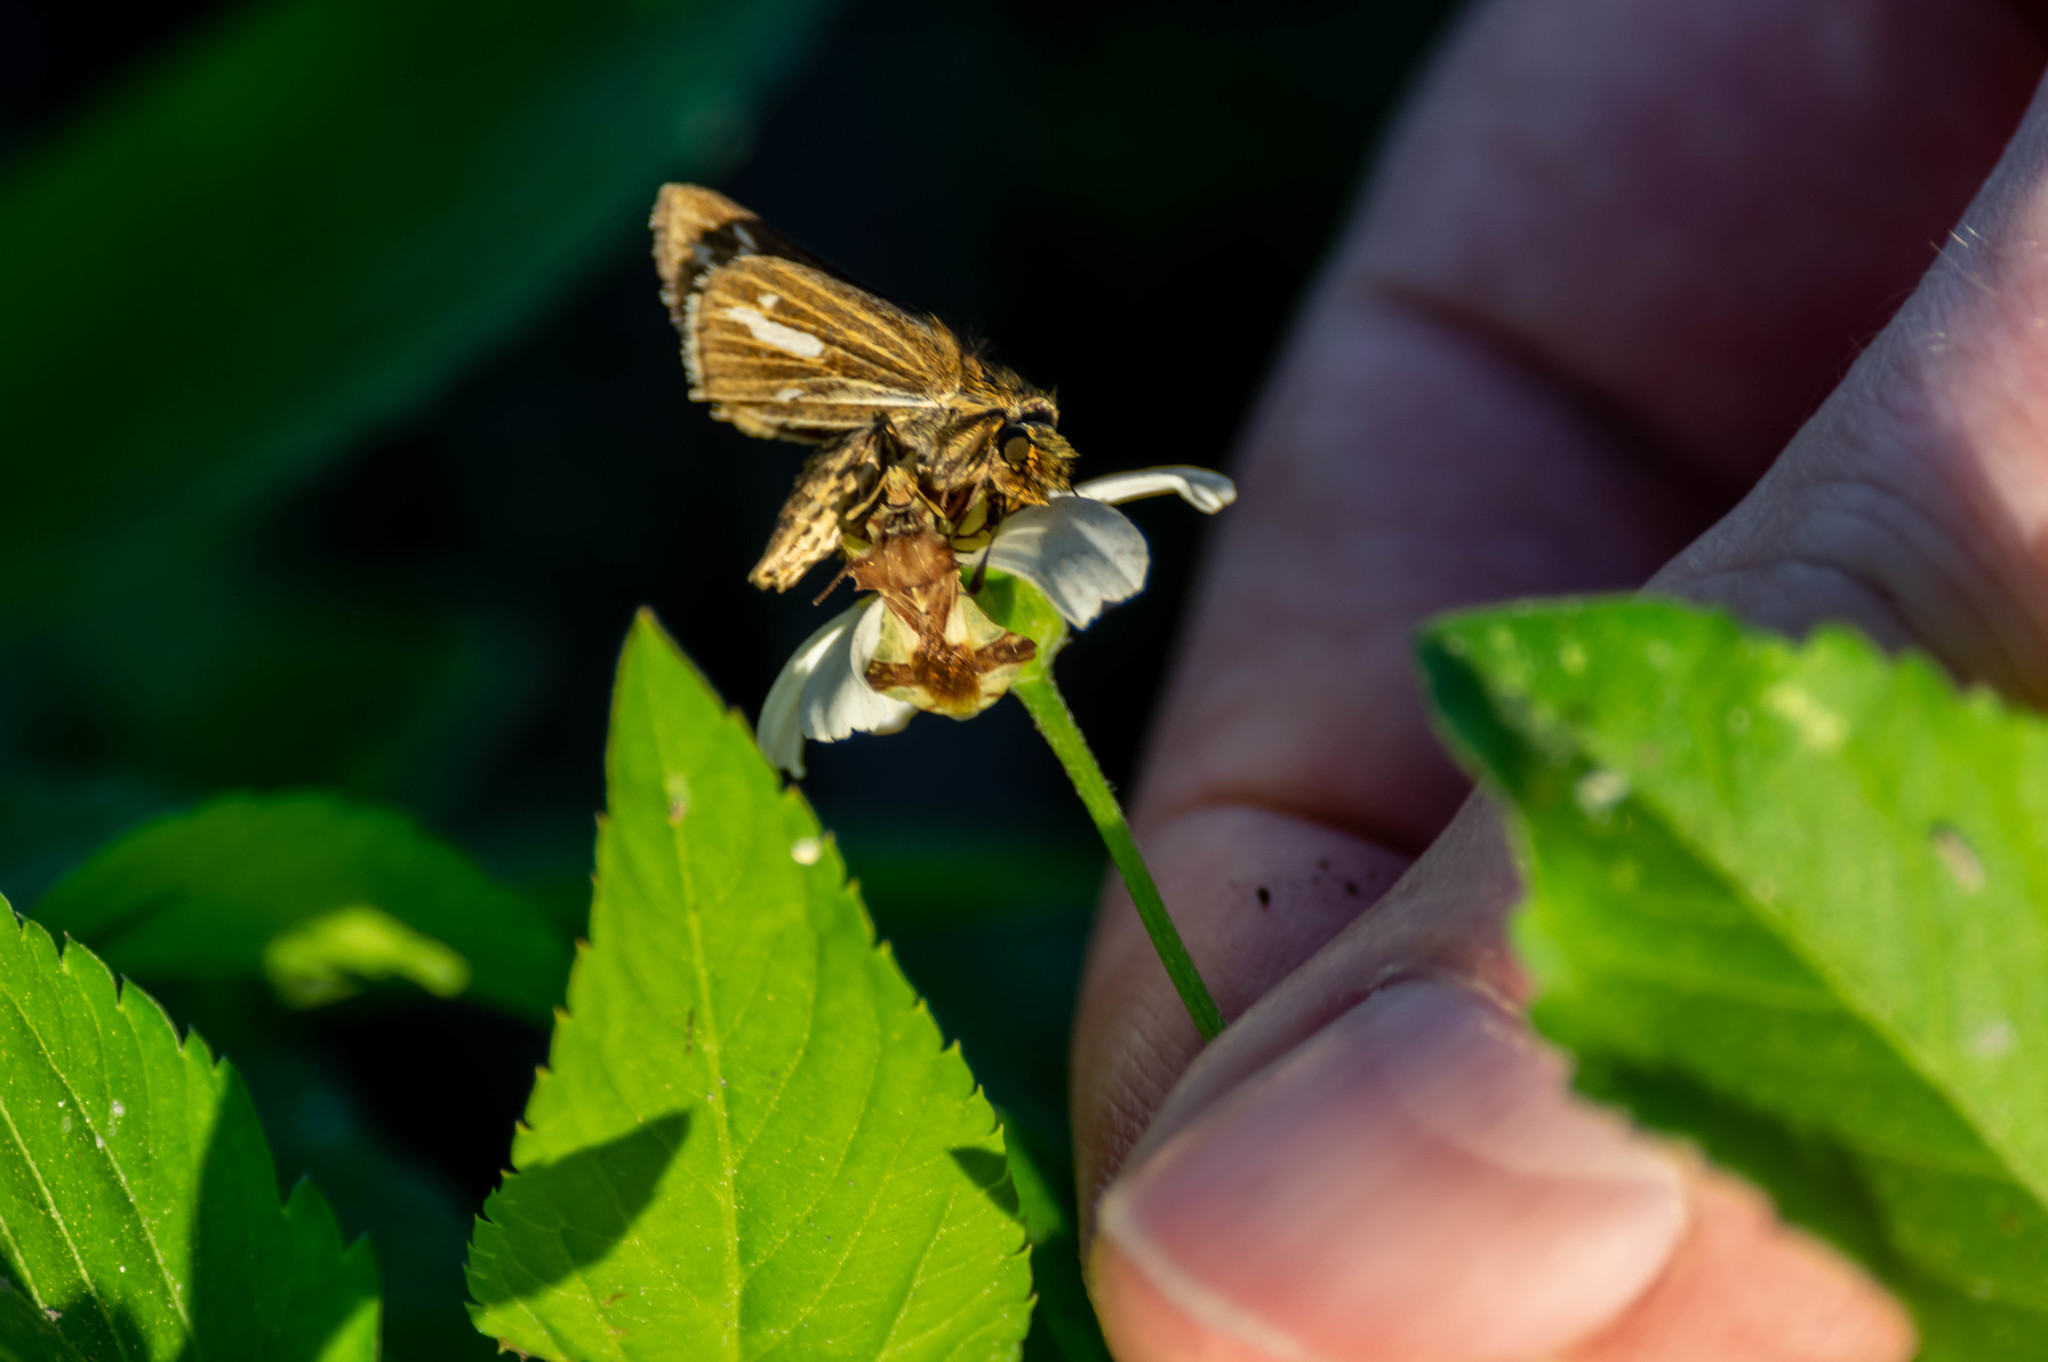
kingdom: Animalia
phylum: Arthropoda
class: Insecta
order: Hemiptera
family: Reduviidae
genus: Phymata
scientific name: Phymata
